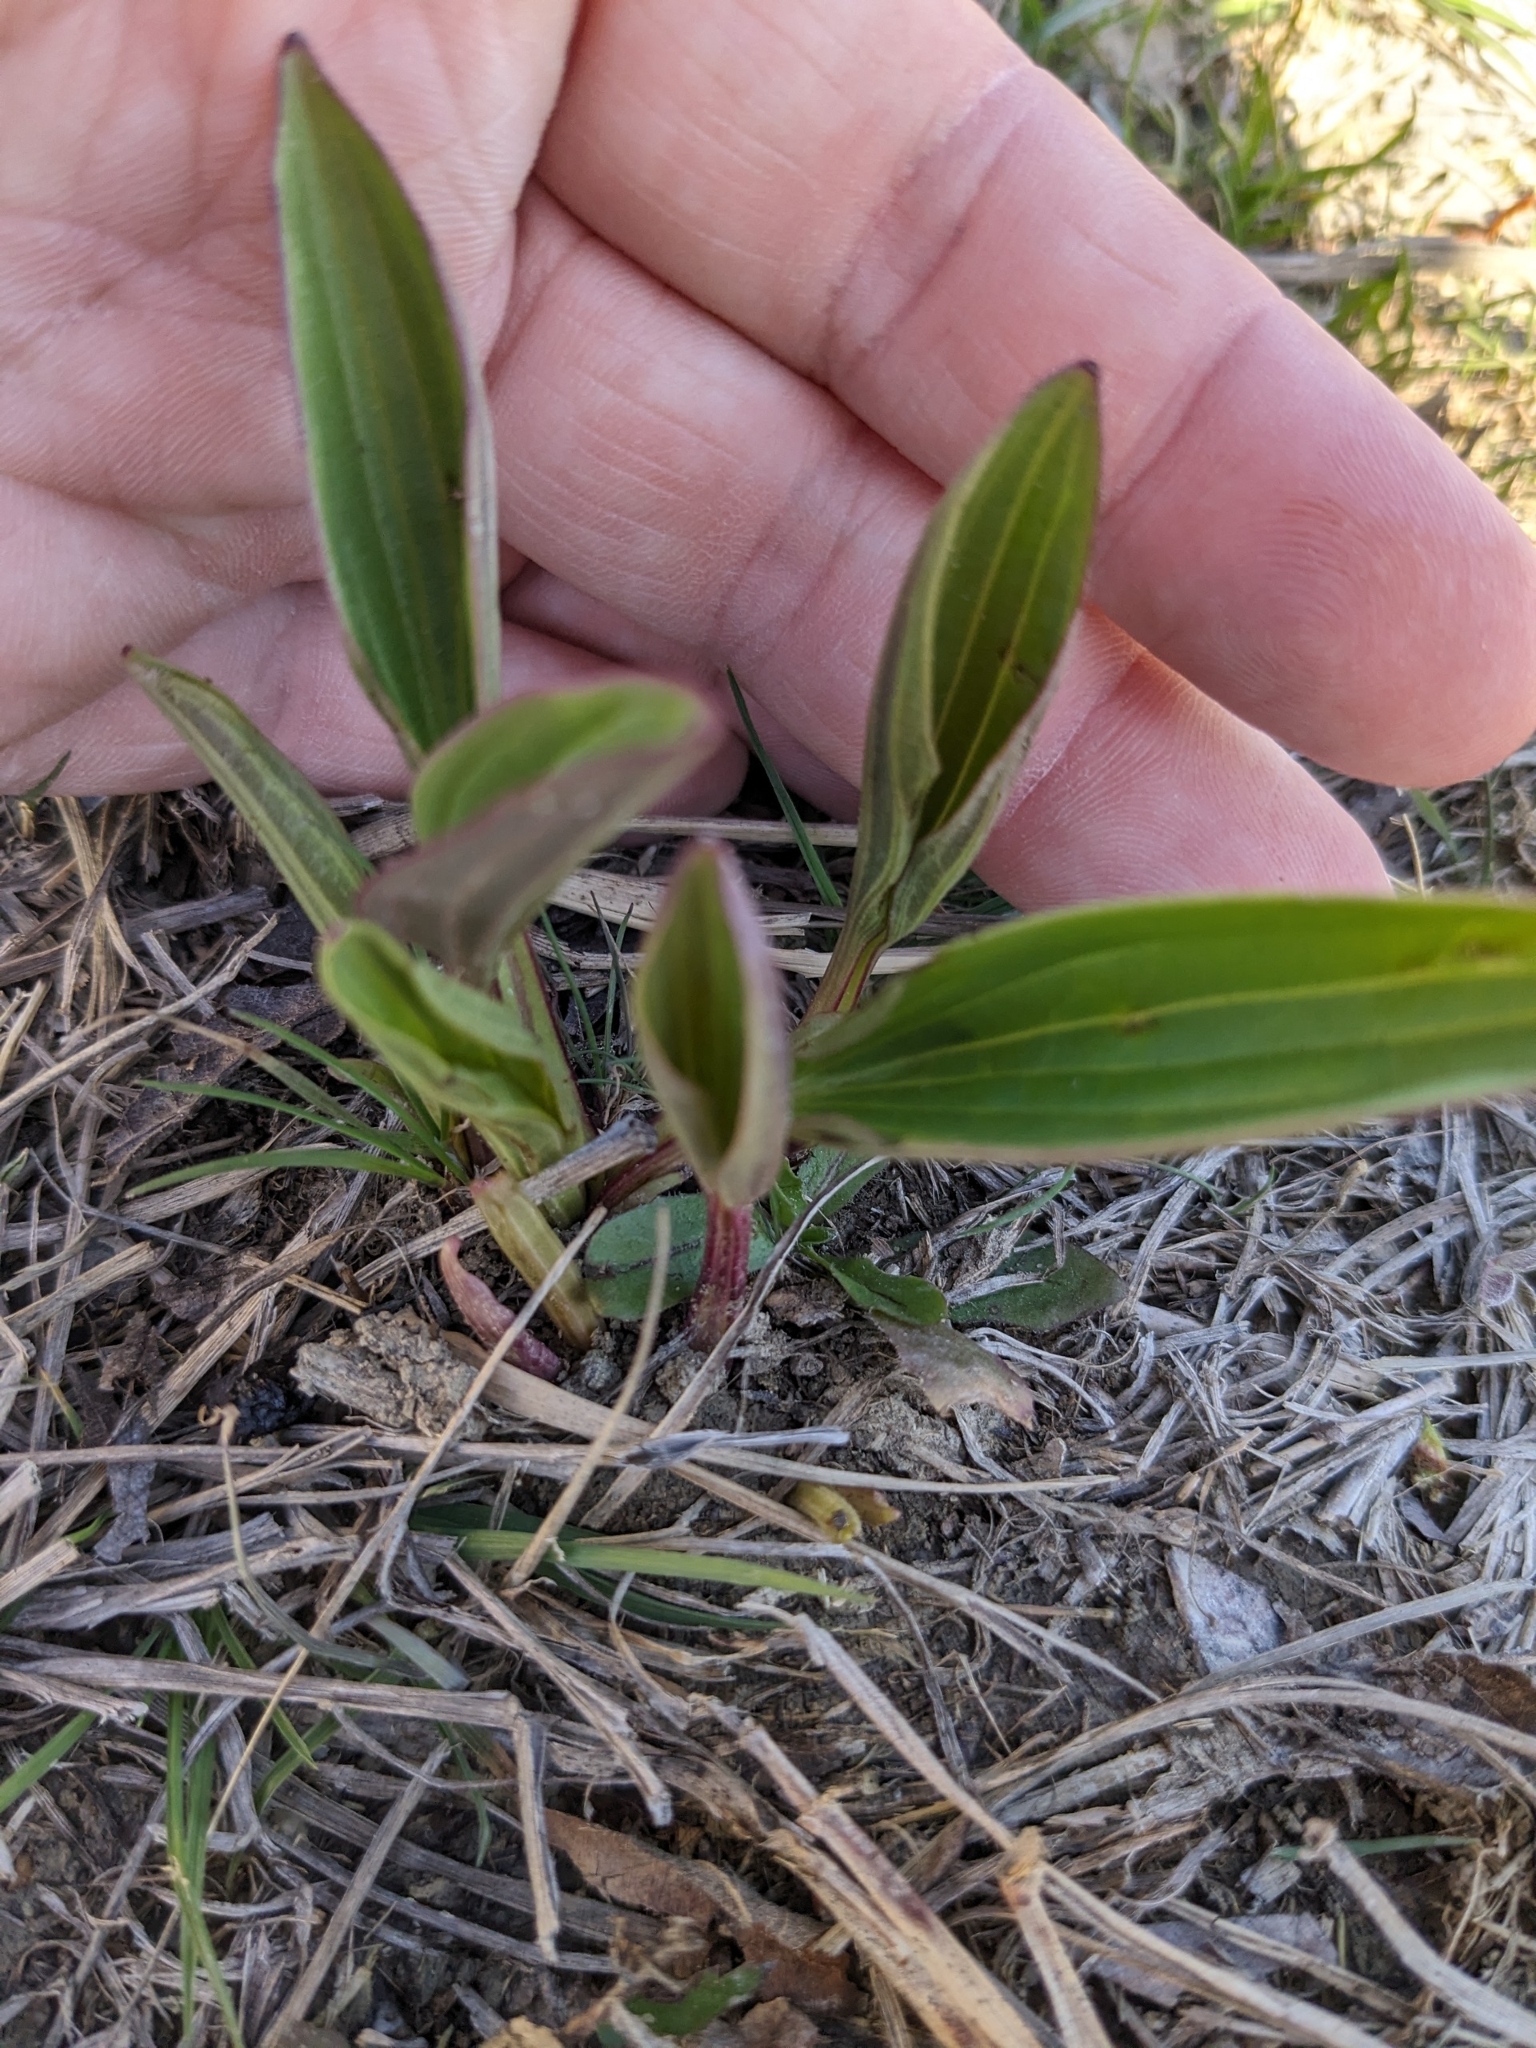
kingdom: Plantae
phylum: Tracheophyta
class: Magnoliopsida
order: Asterales
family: Asteraceae
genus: Arnoglossum
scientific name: Arnoglossum plantagineum
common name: Groove-stemmed indian-plantain
